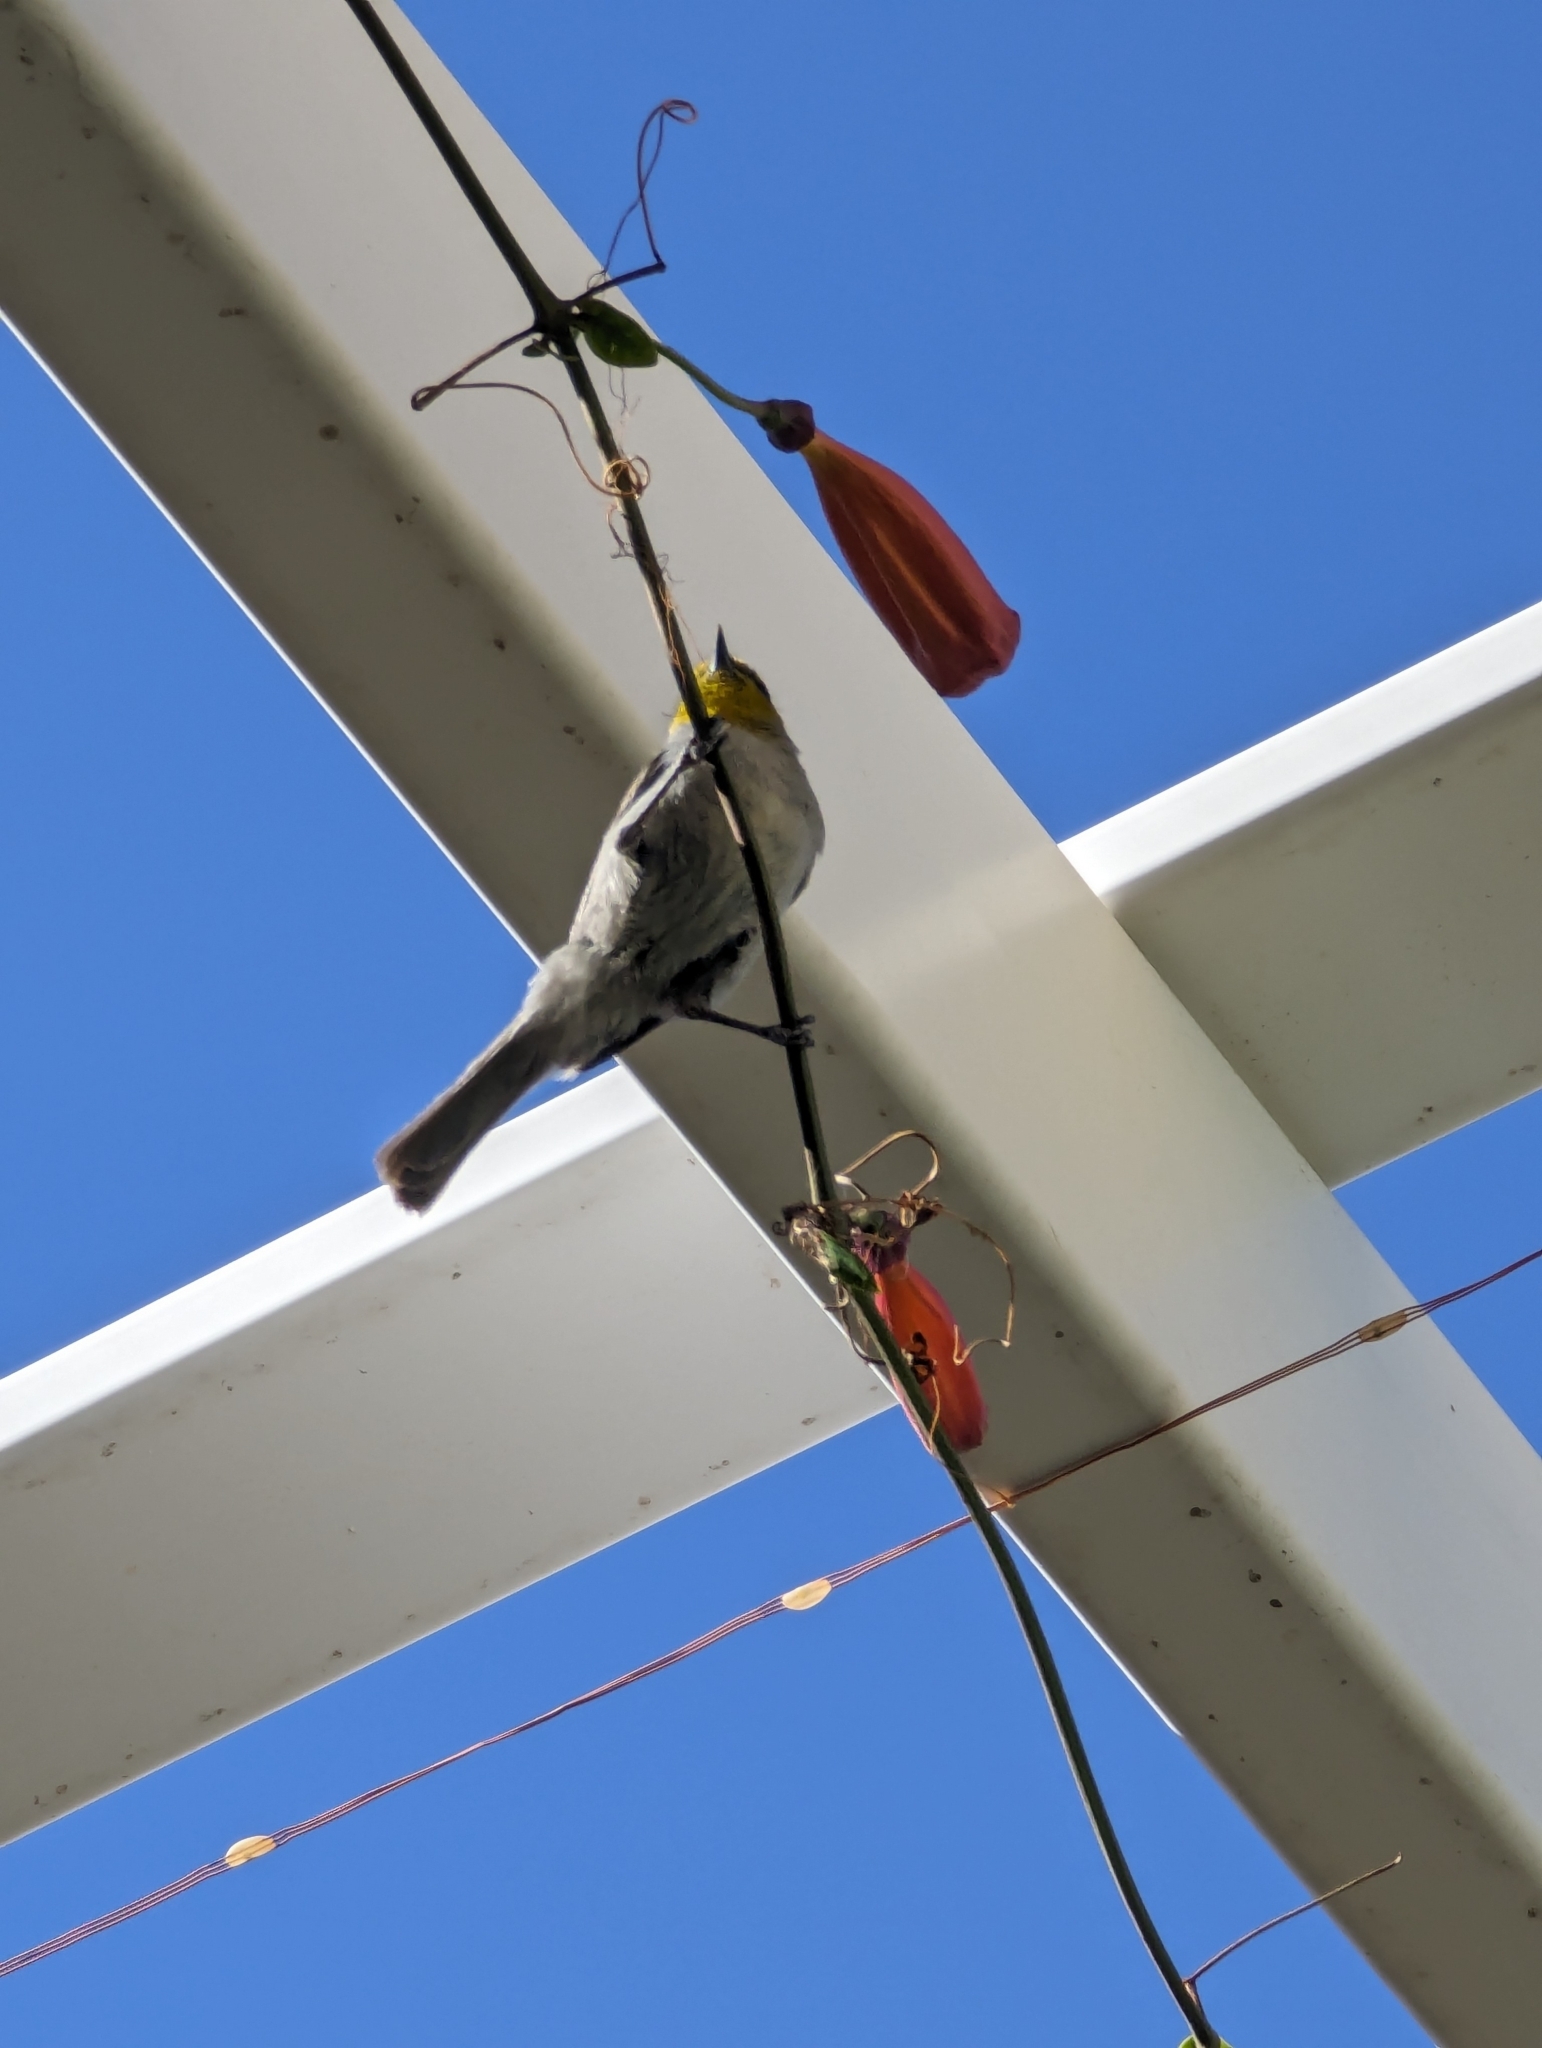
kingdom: Animalia
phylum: Chordata
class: Aves
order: Passeriformes
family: Remizidae
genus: Auriparus
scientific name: Auriparus flaviceps
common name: Verdin
